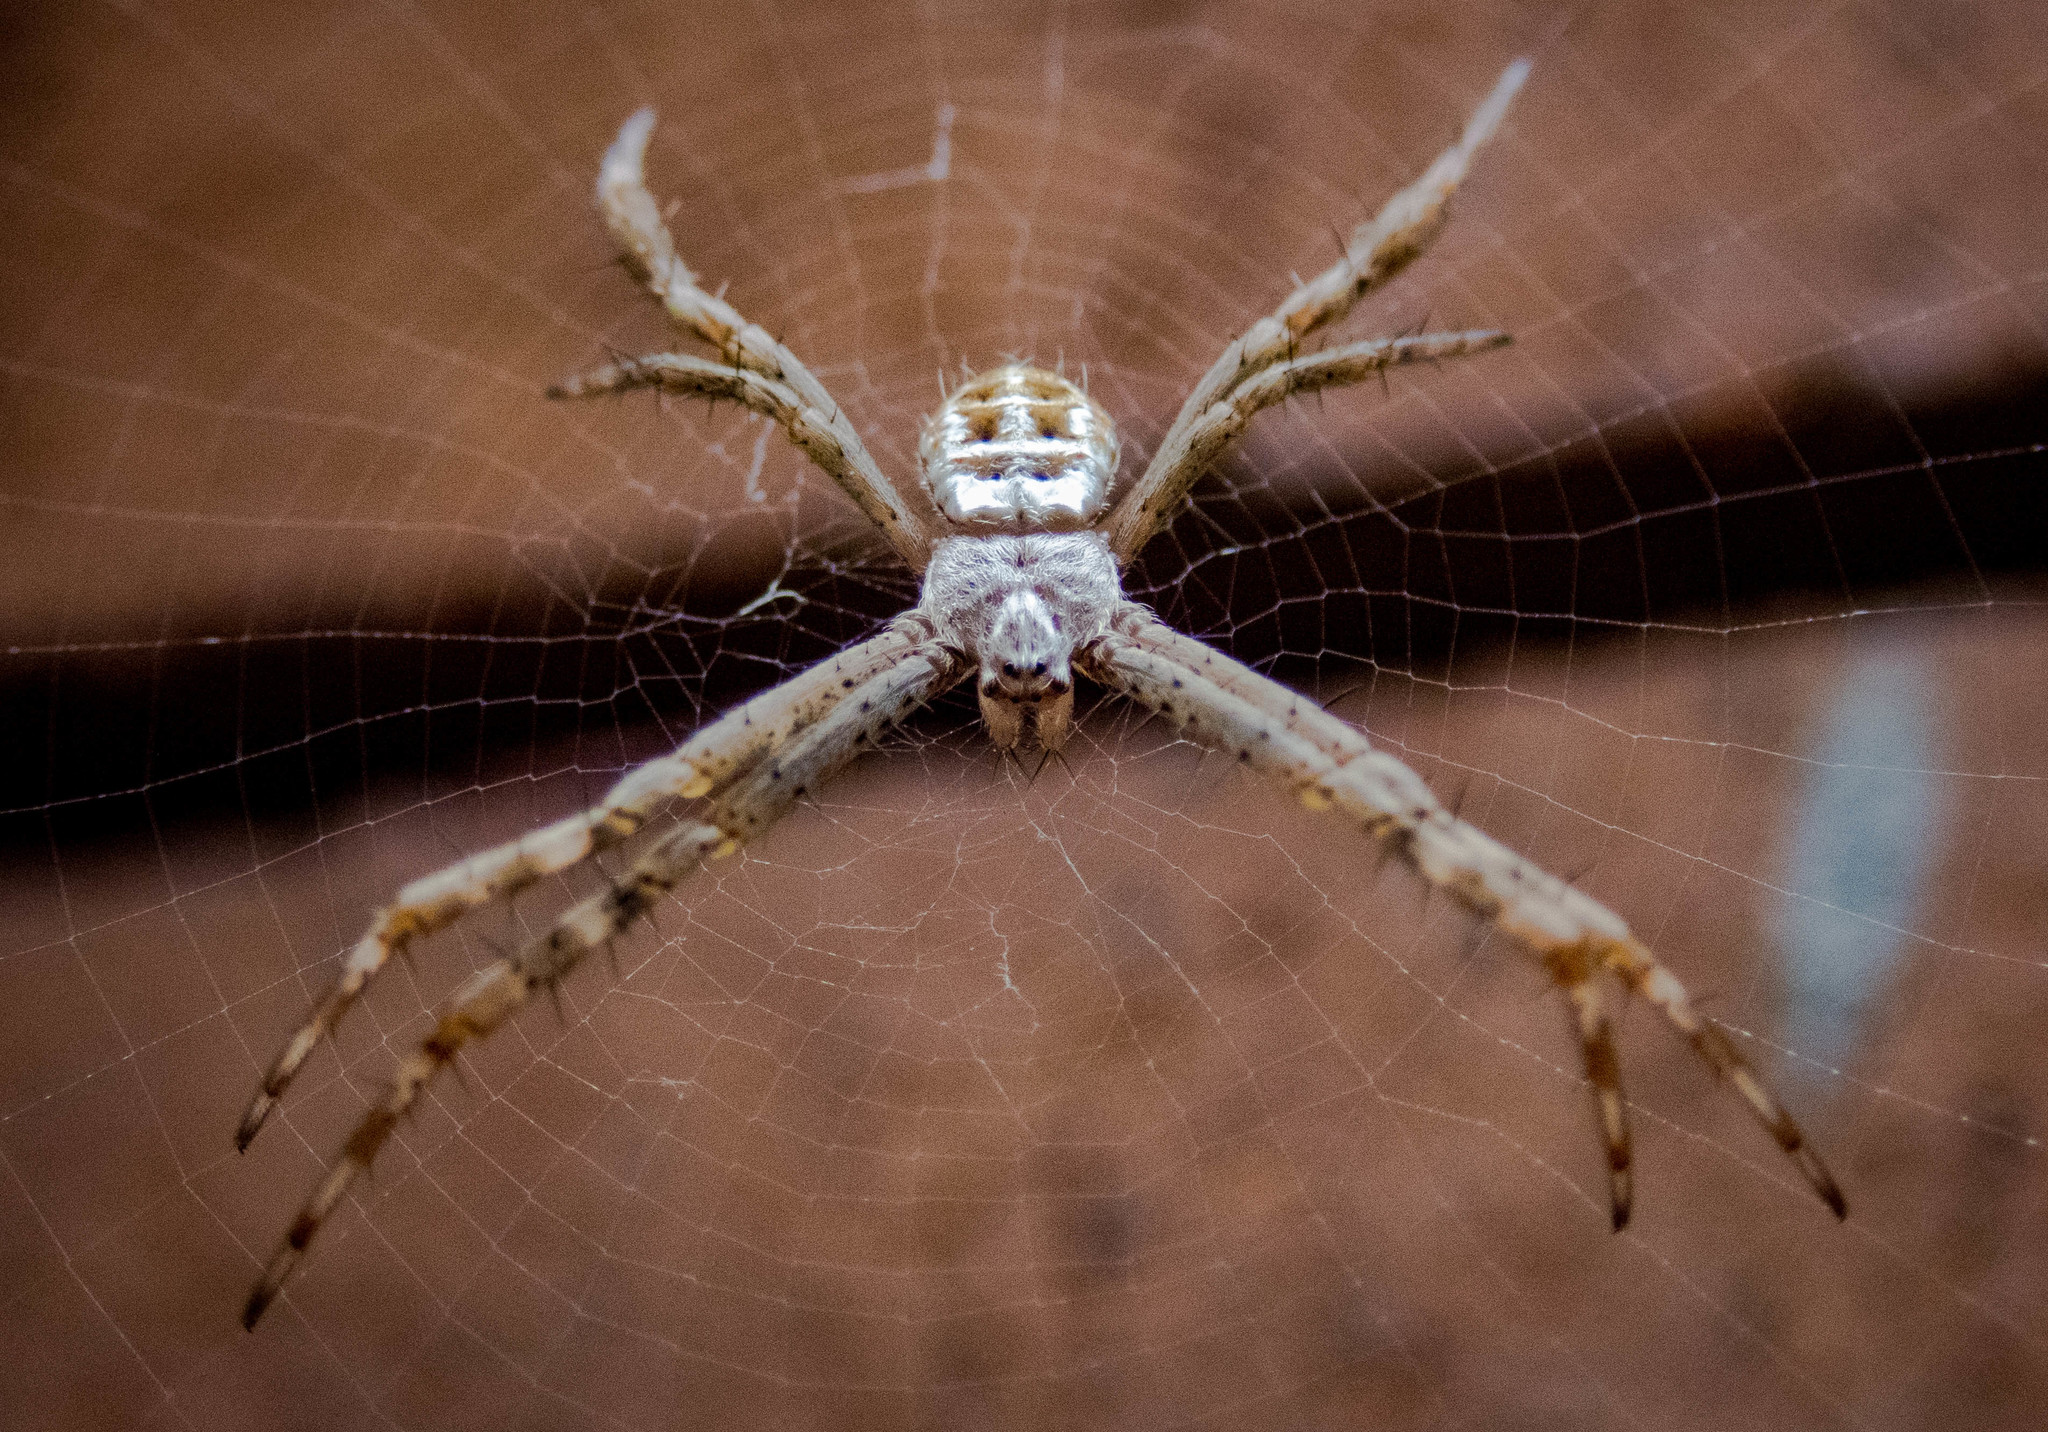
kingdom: Animalia
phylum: Arthropoda
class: Arachnida
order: Araneae
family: Araneidae
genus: Argiope
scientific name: Argiope keyserlingi
